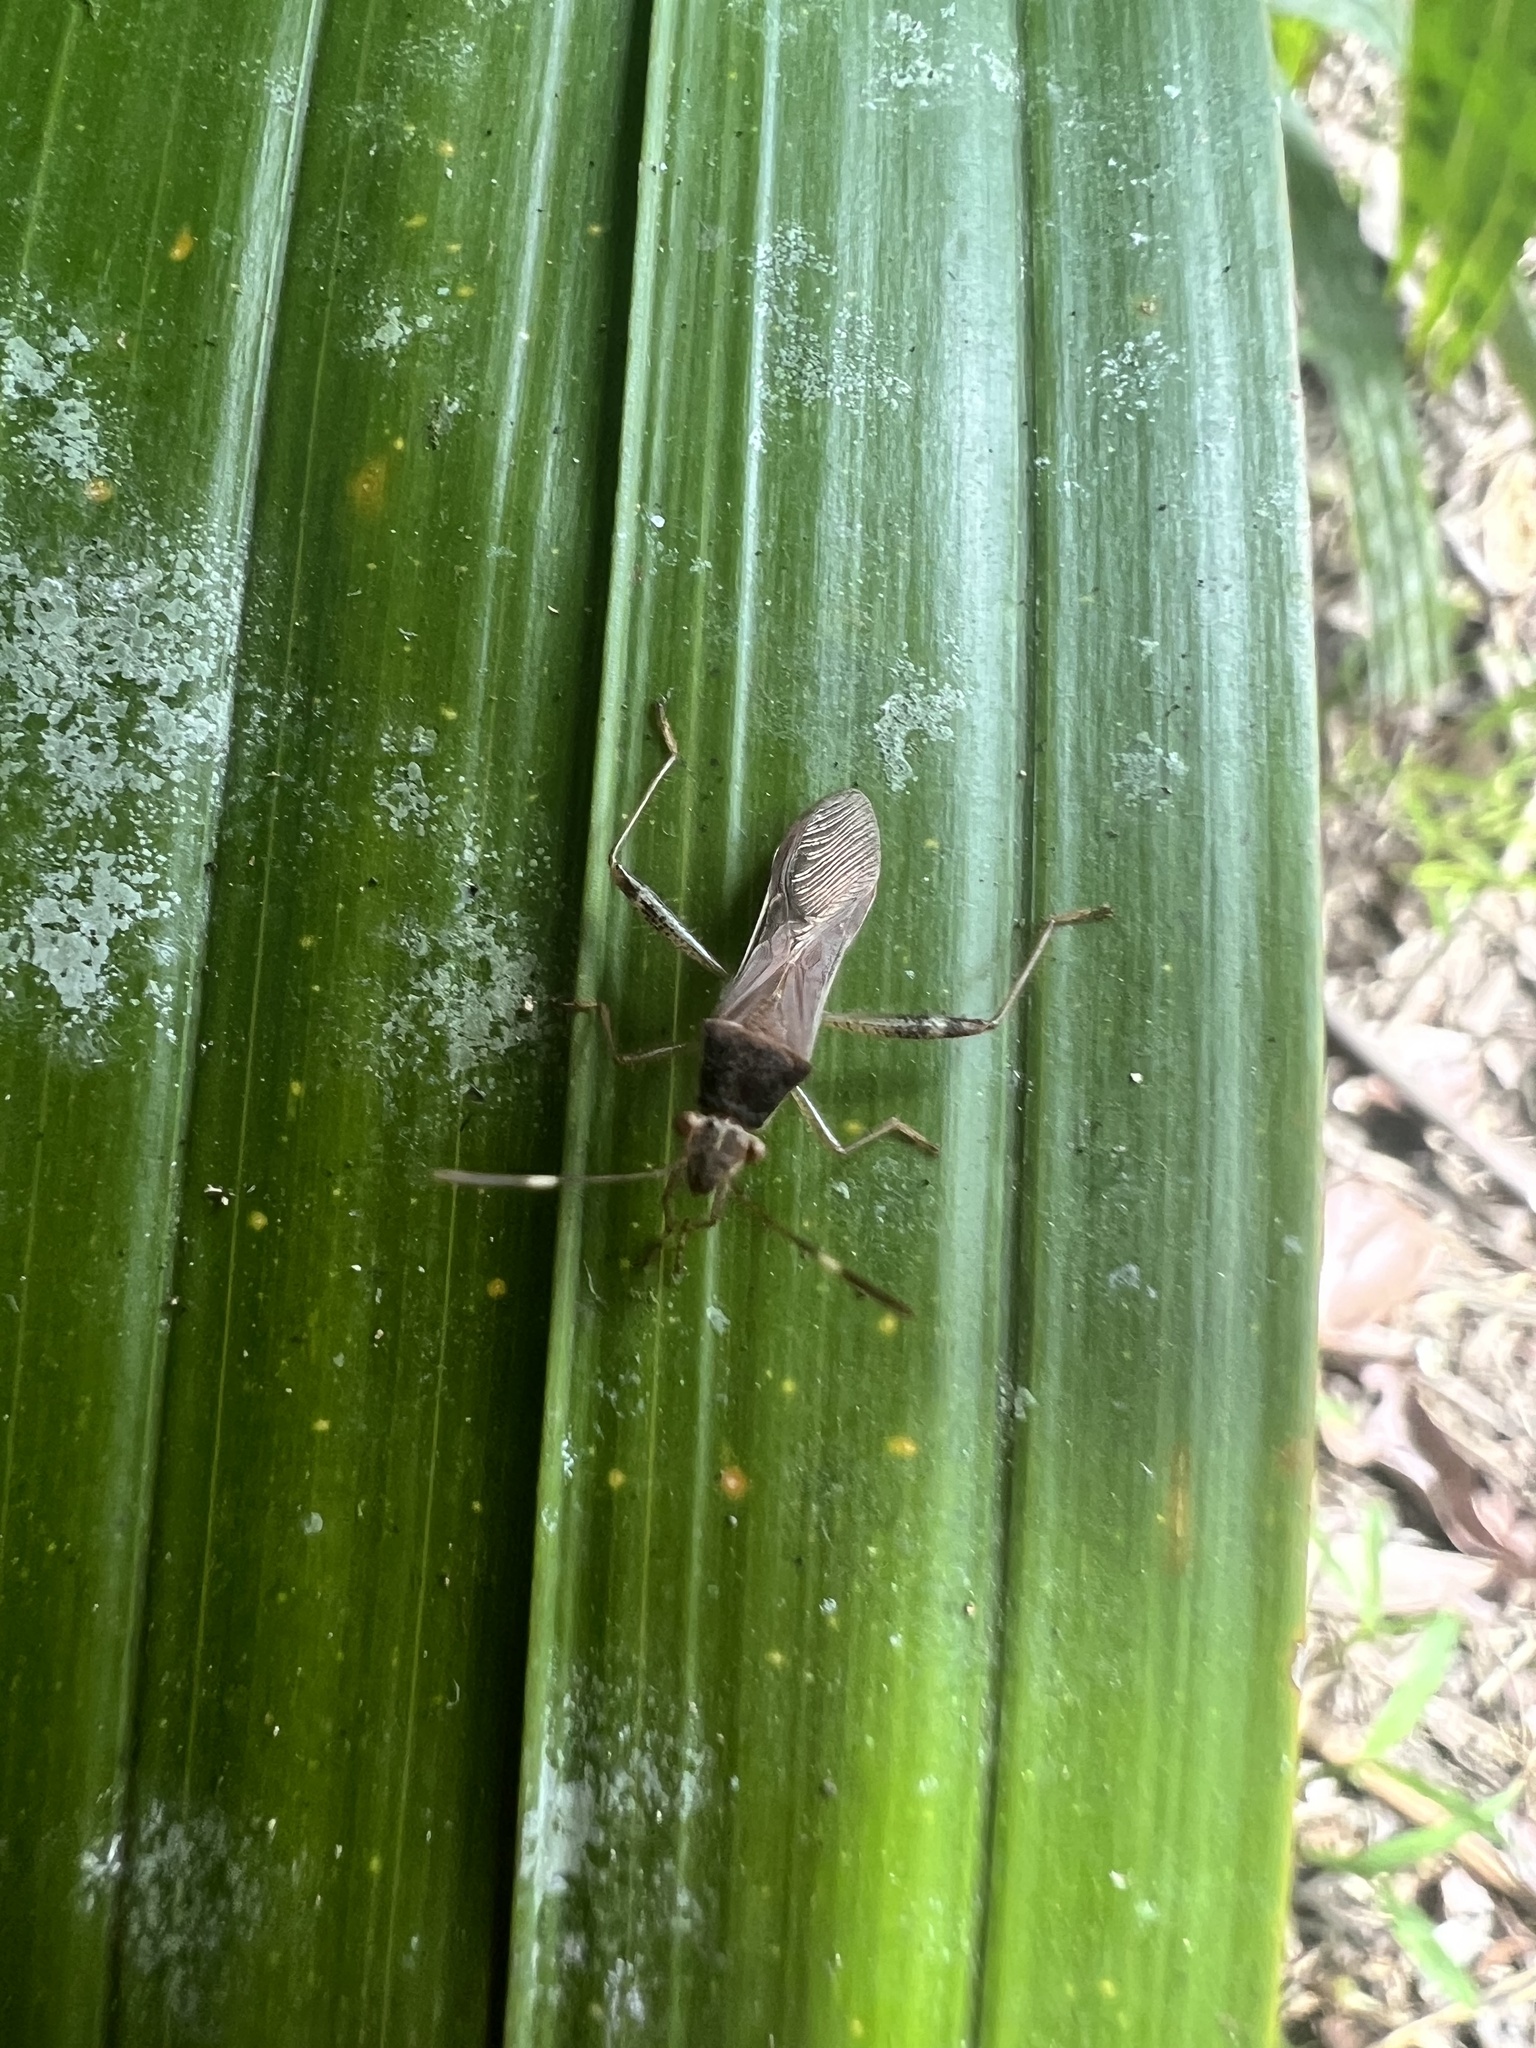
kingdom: Animalia
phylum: Arthropoda
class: Insecta
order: Hemiptera
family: Alydidae
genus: Burtinus
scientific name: Burtinus notatipennis
